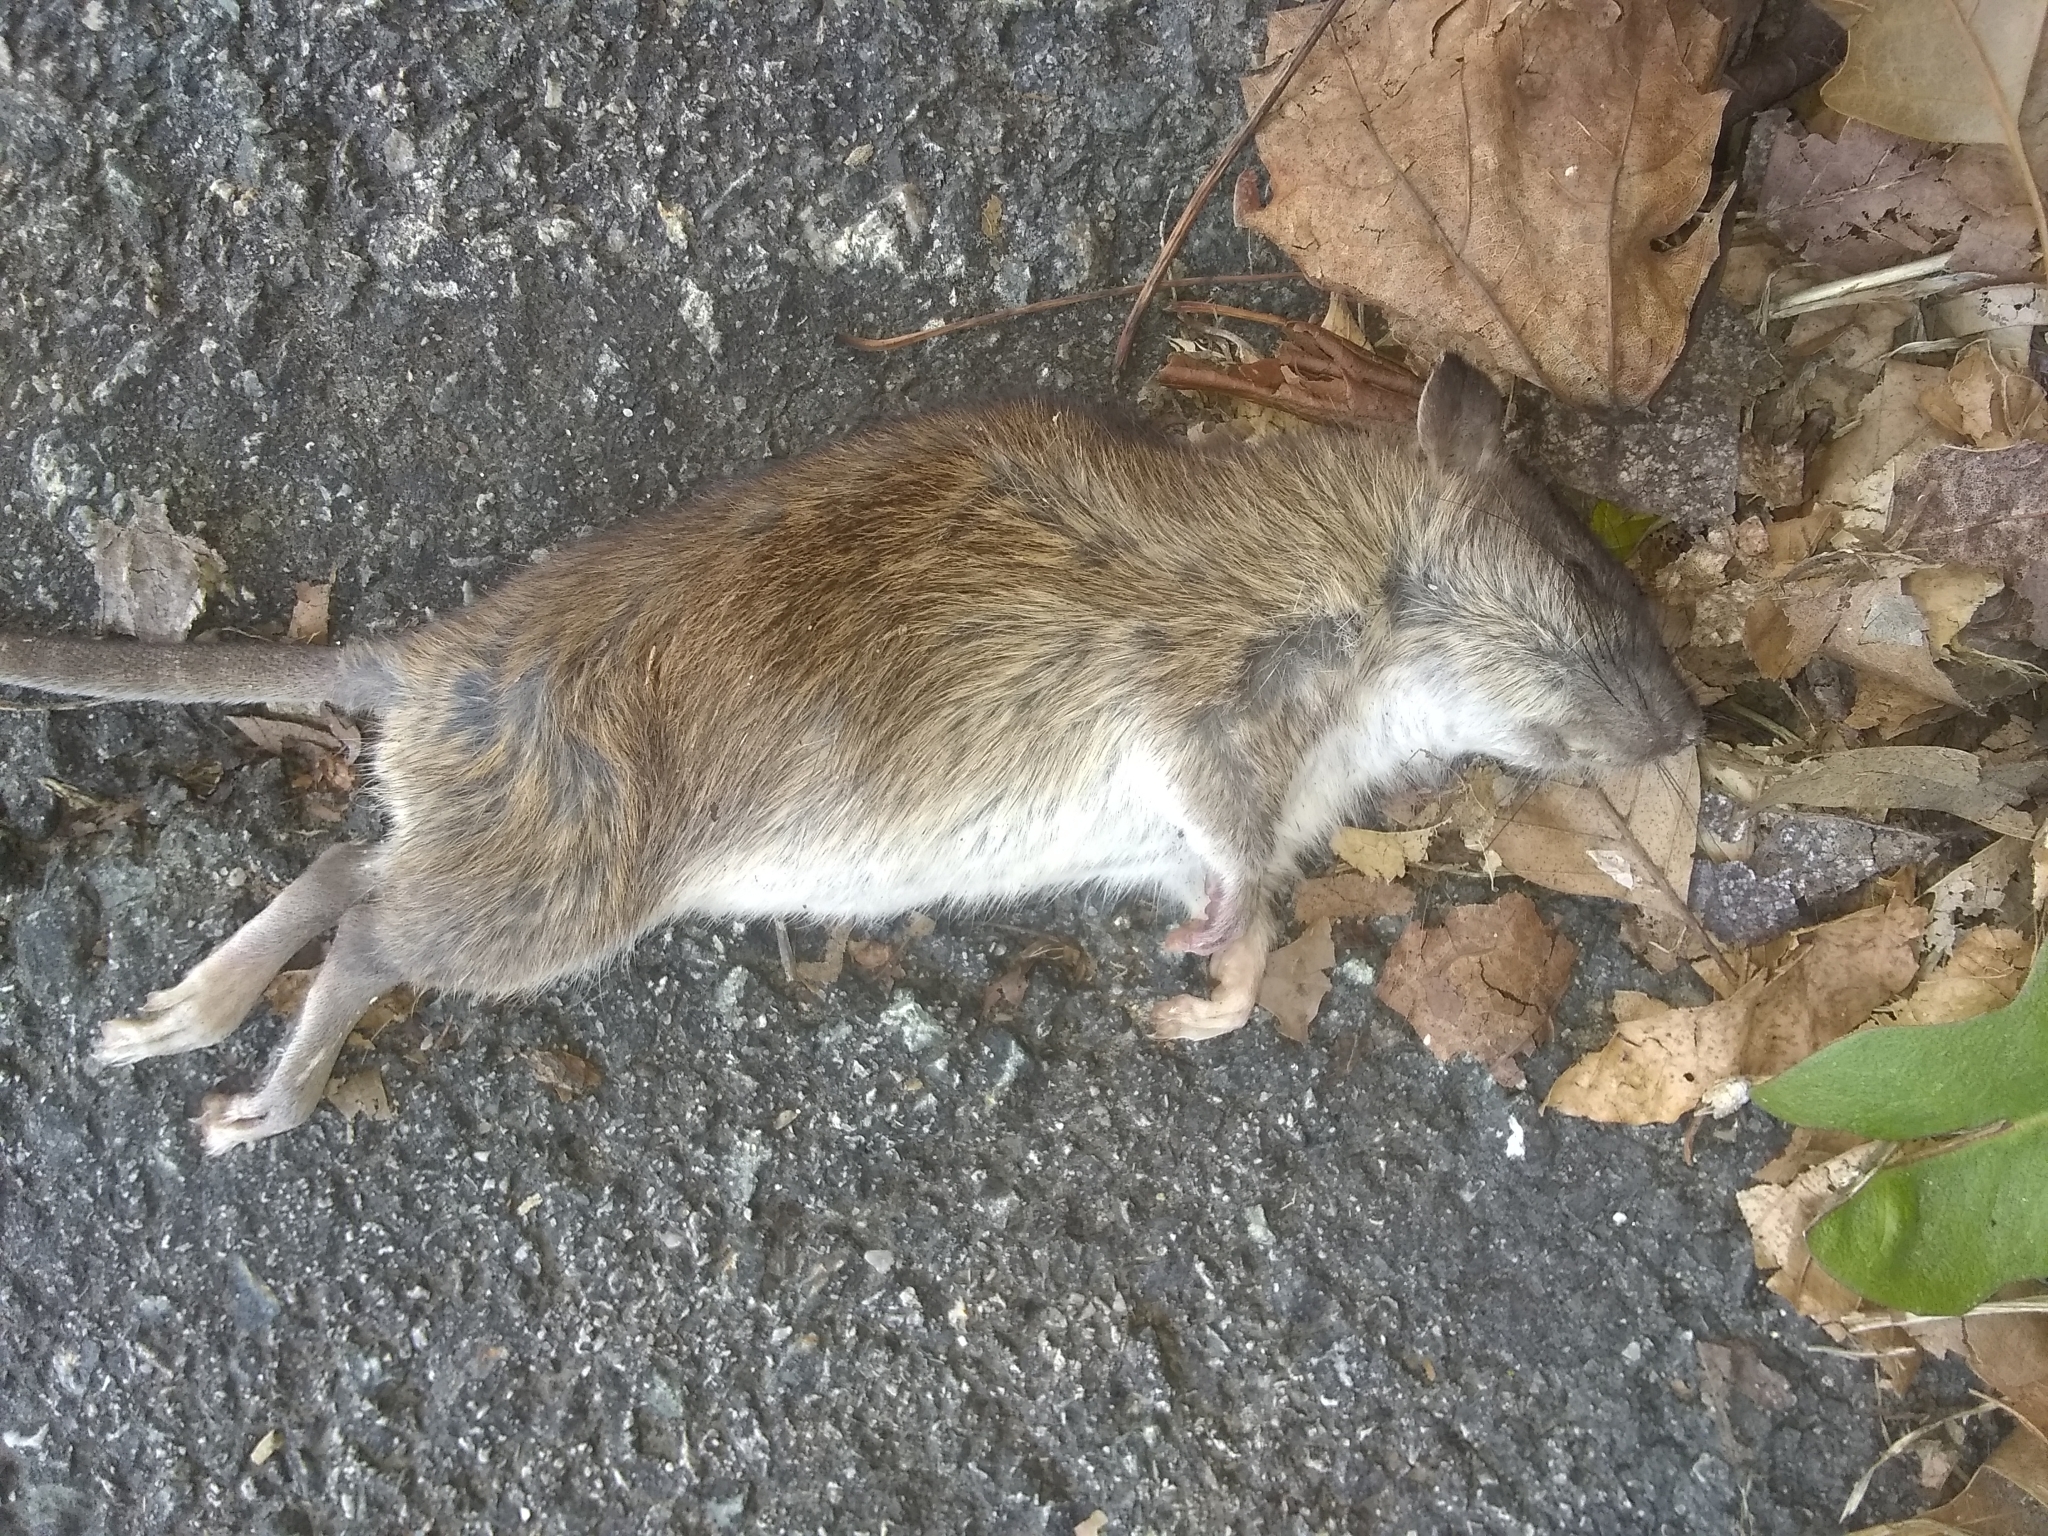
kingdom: Animalia
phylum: Chordata
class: Mammalia
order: Rodentia
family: Muridae
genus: Rattus
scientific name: Rattus norvegicus
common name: Brown rat
